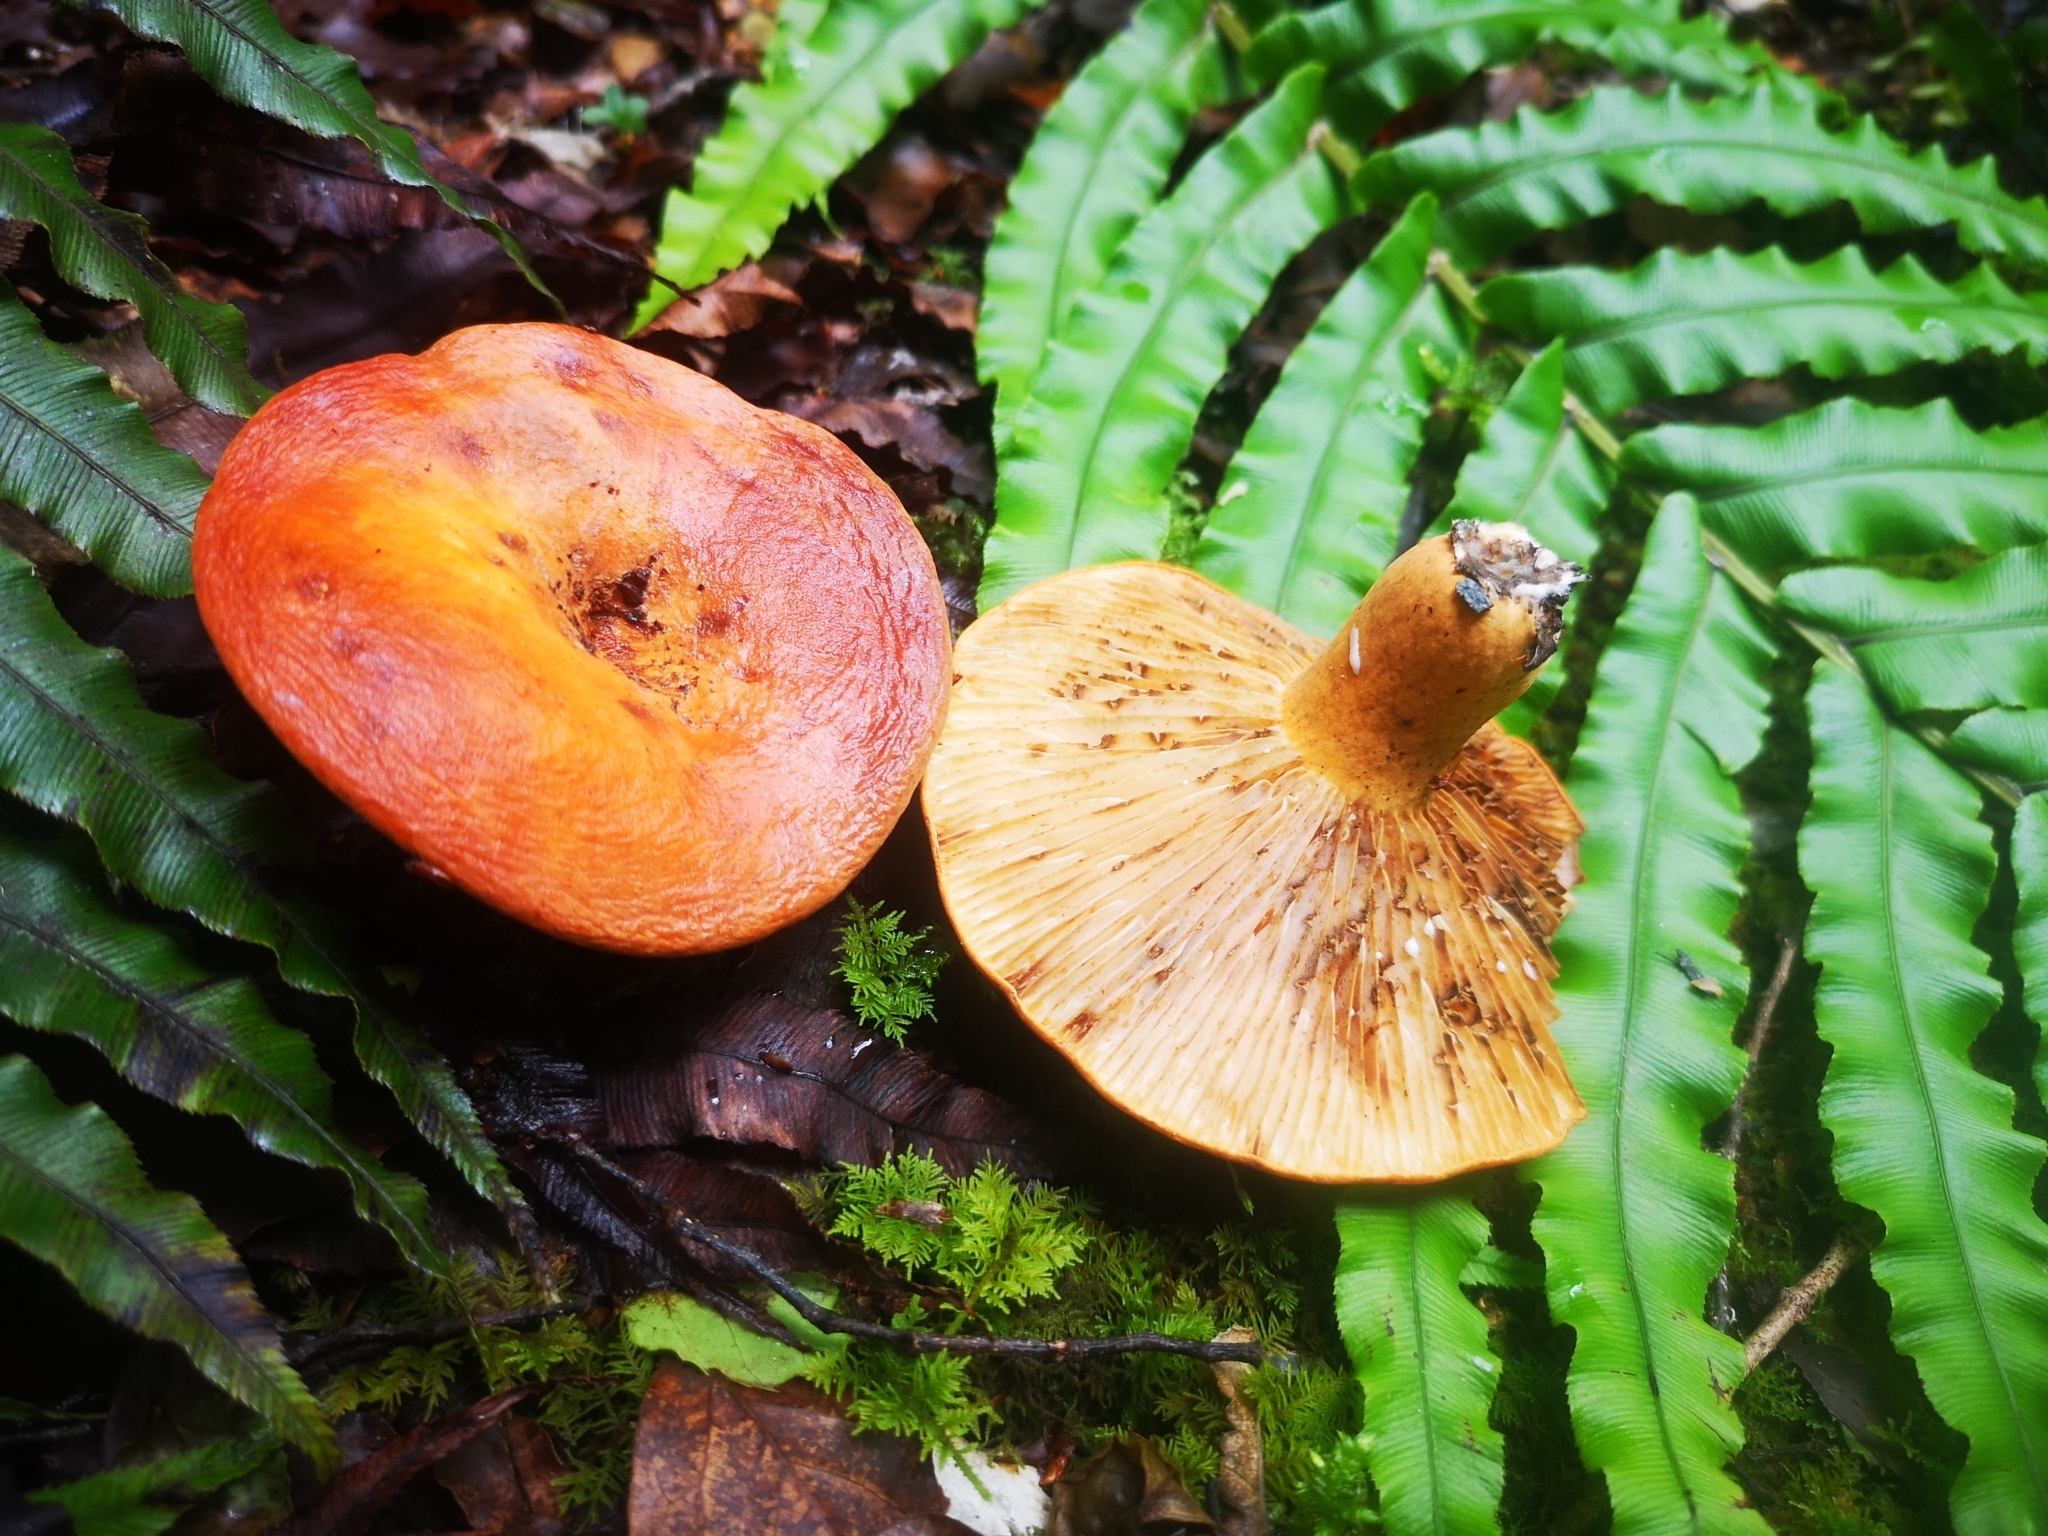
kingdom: Fungi
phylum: Basidiomycota
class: Agaricomycetes
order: Russulales
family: Russulaceae
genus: Lactifluus
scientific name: Lactifluus aurantioruber
